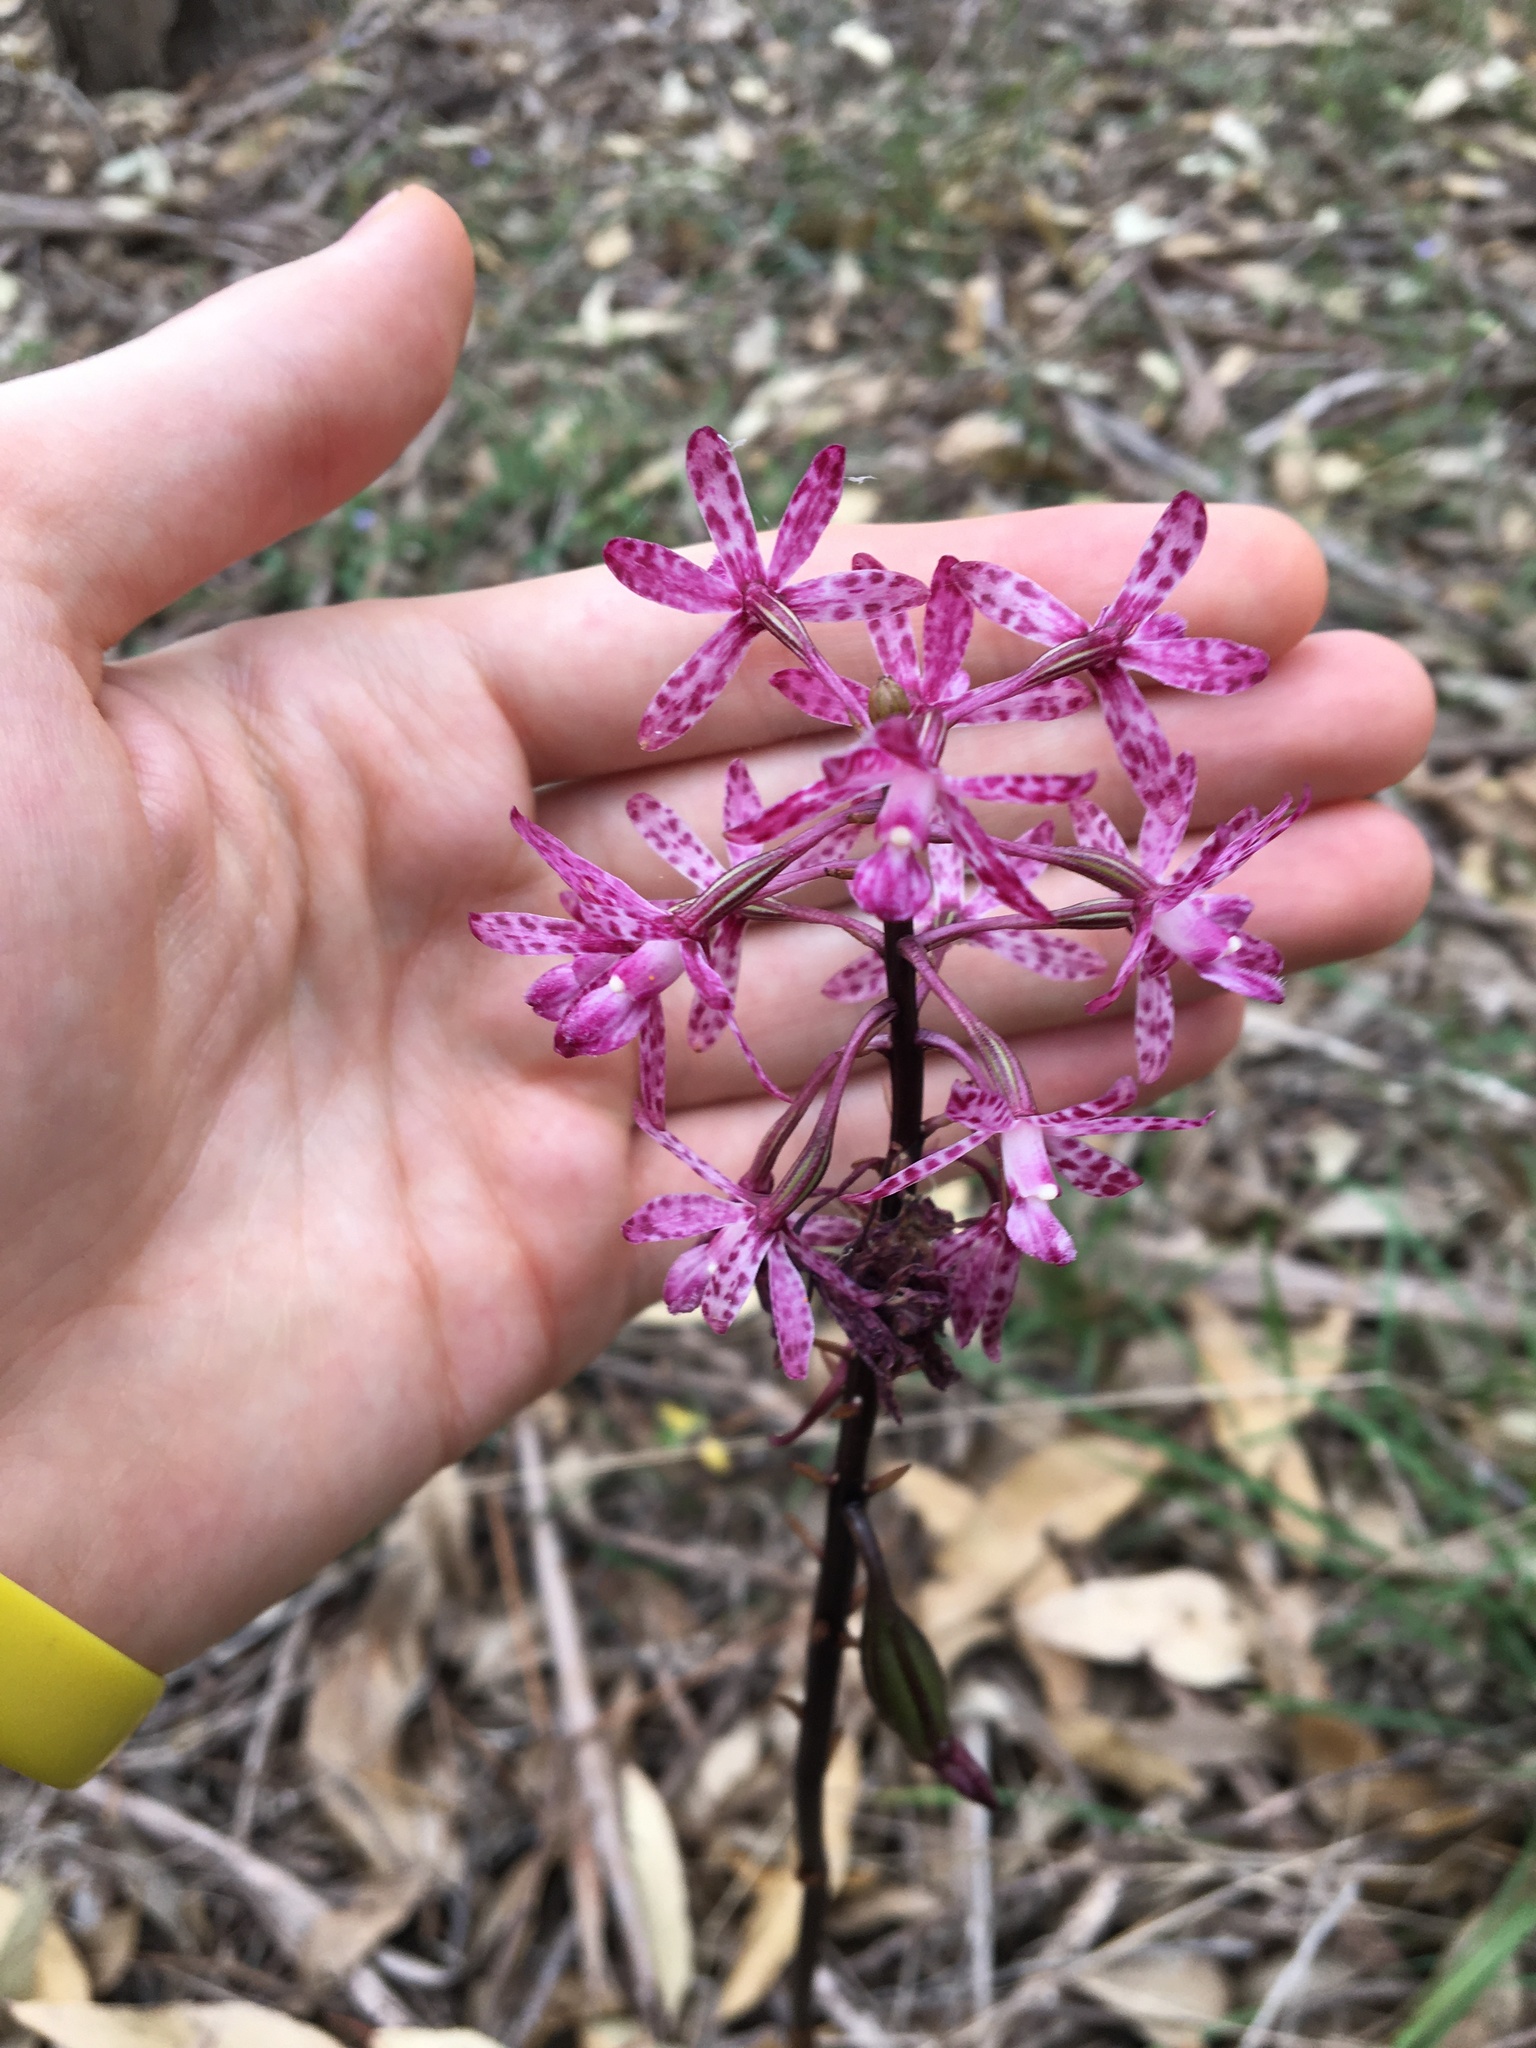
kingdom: Plantae
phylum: Tracheophyta
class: Liliopsida
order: Asparagales
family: Orchidaceae
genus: Dipodium
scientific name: Dipodium squamatum
